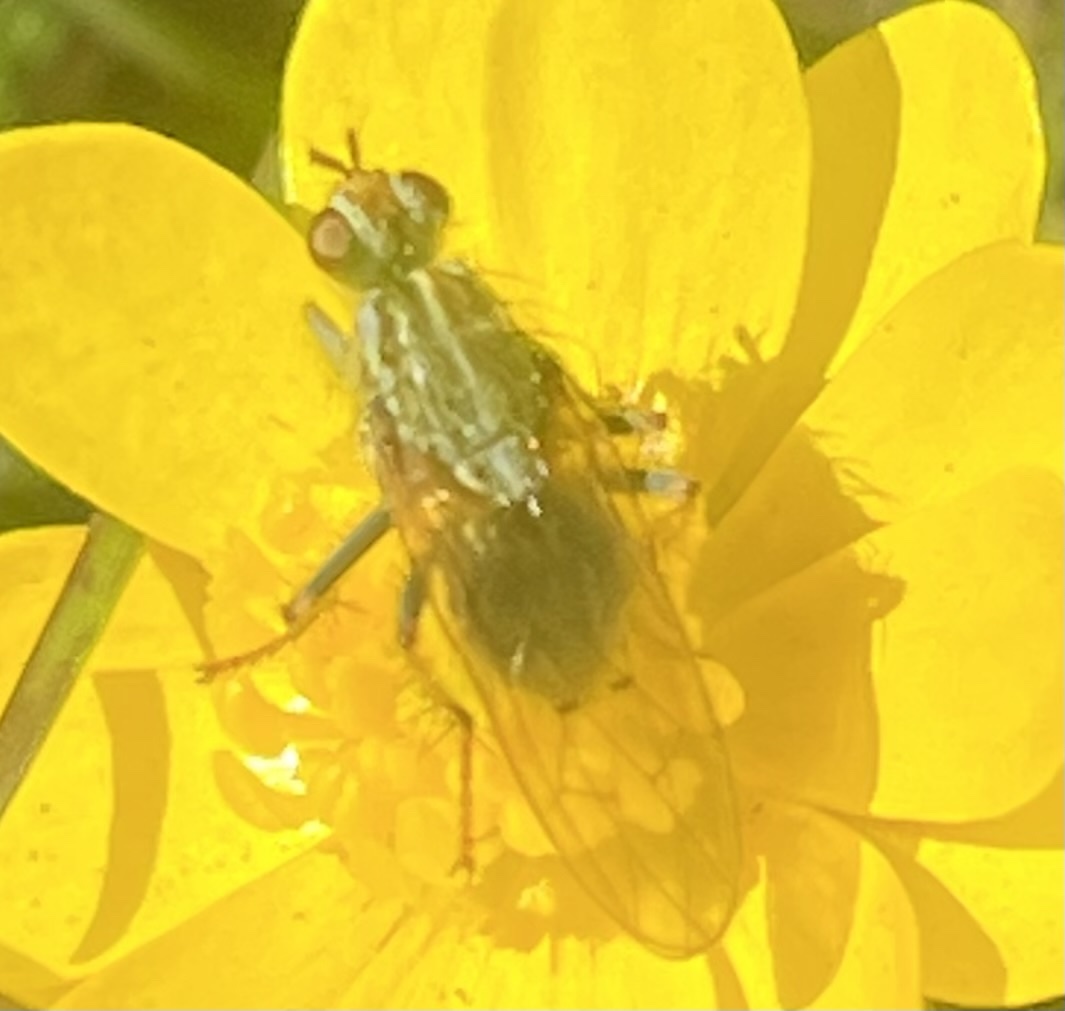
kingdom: Animalia
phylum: Arthropoda
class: Insecta
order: Diptera
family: Scathophagidae
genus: Scathophaga
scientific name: Scathophaga stercoraria
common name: Yellow dung fly
